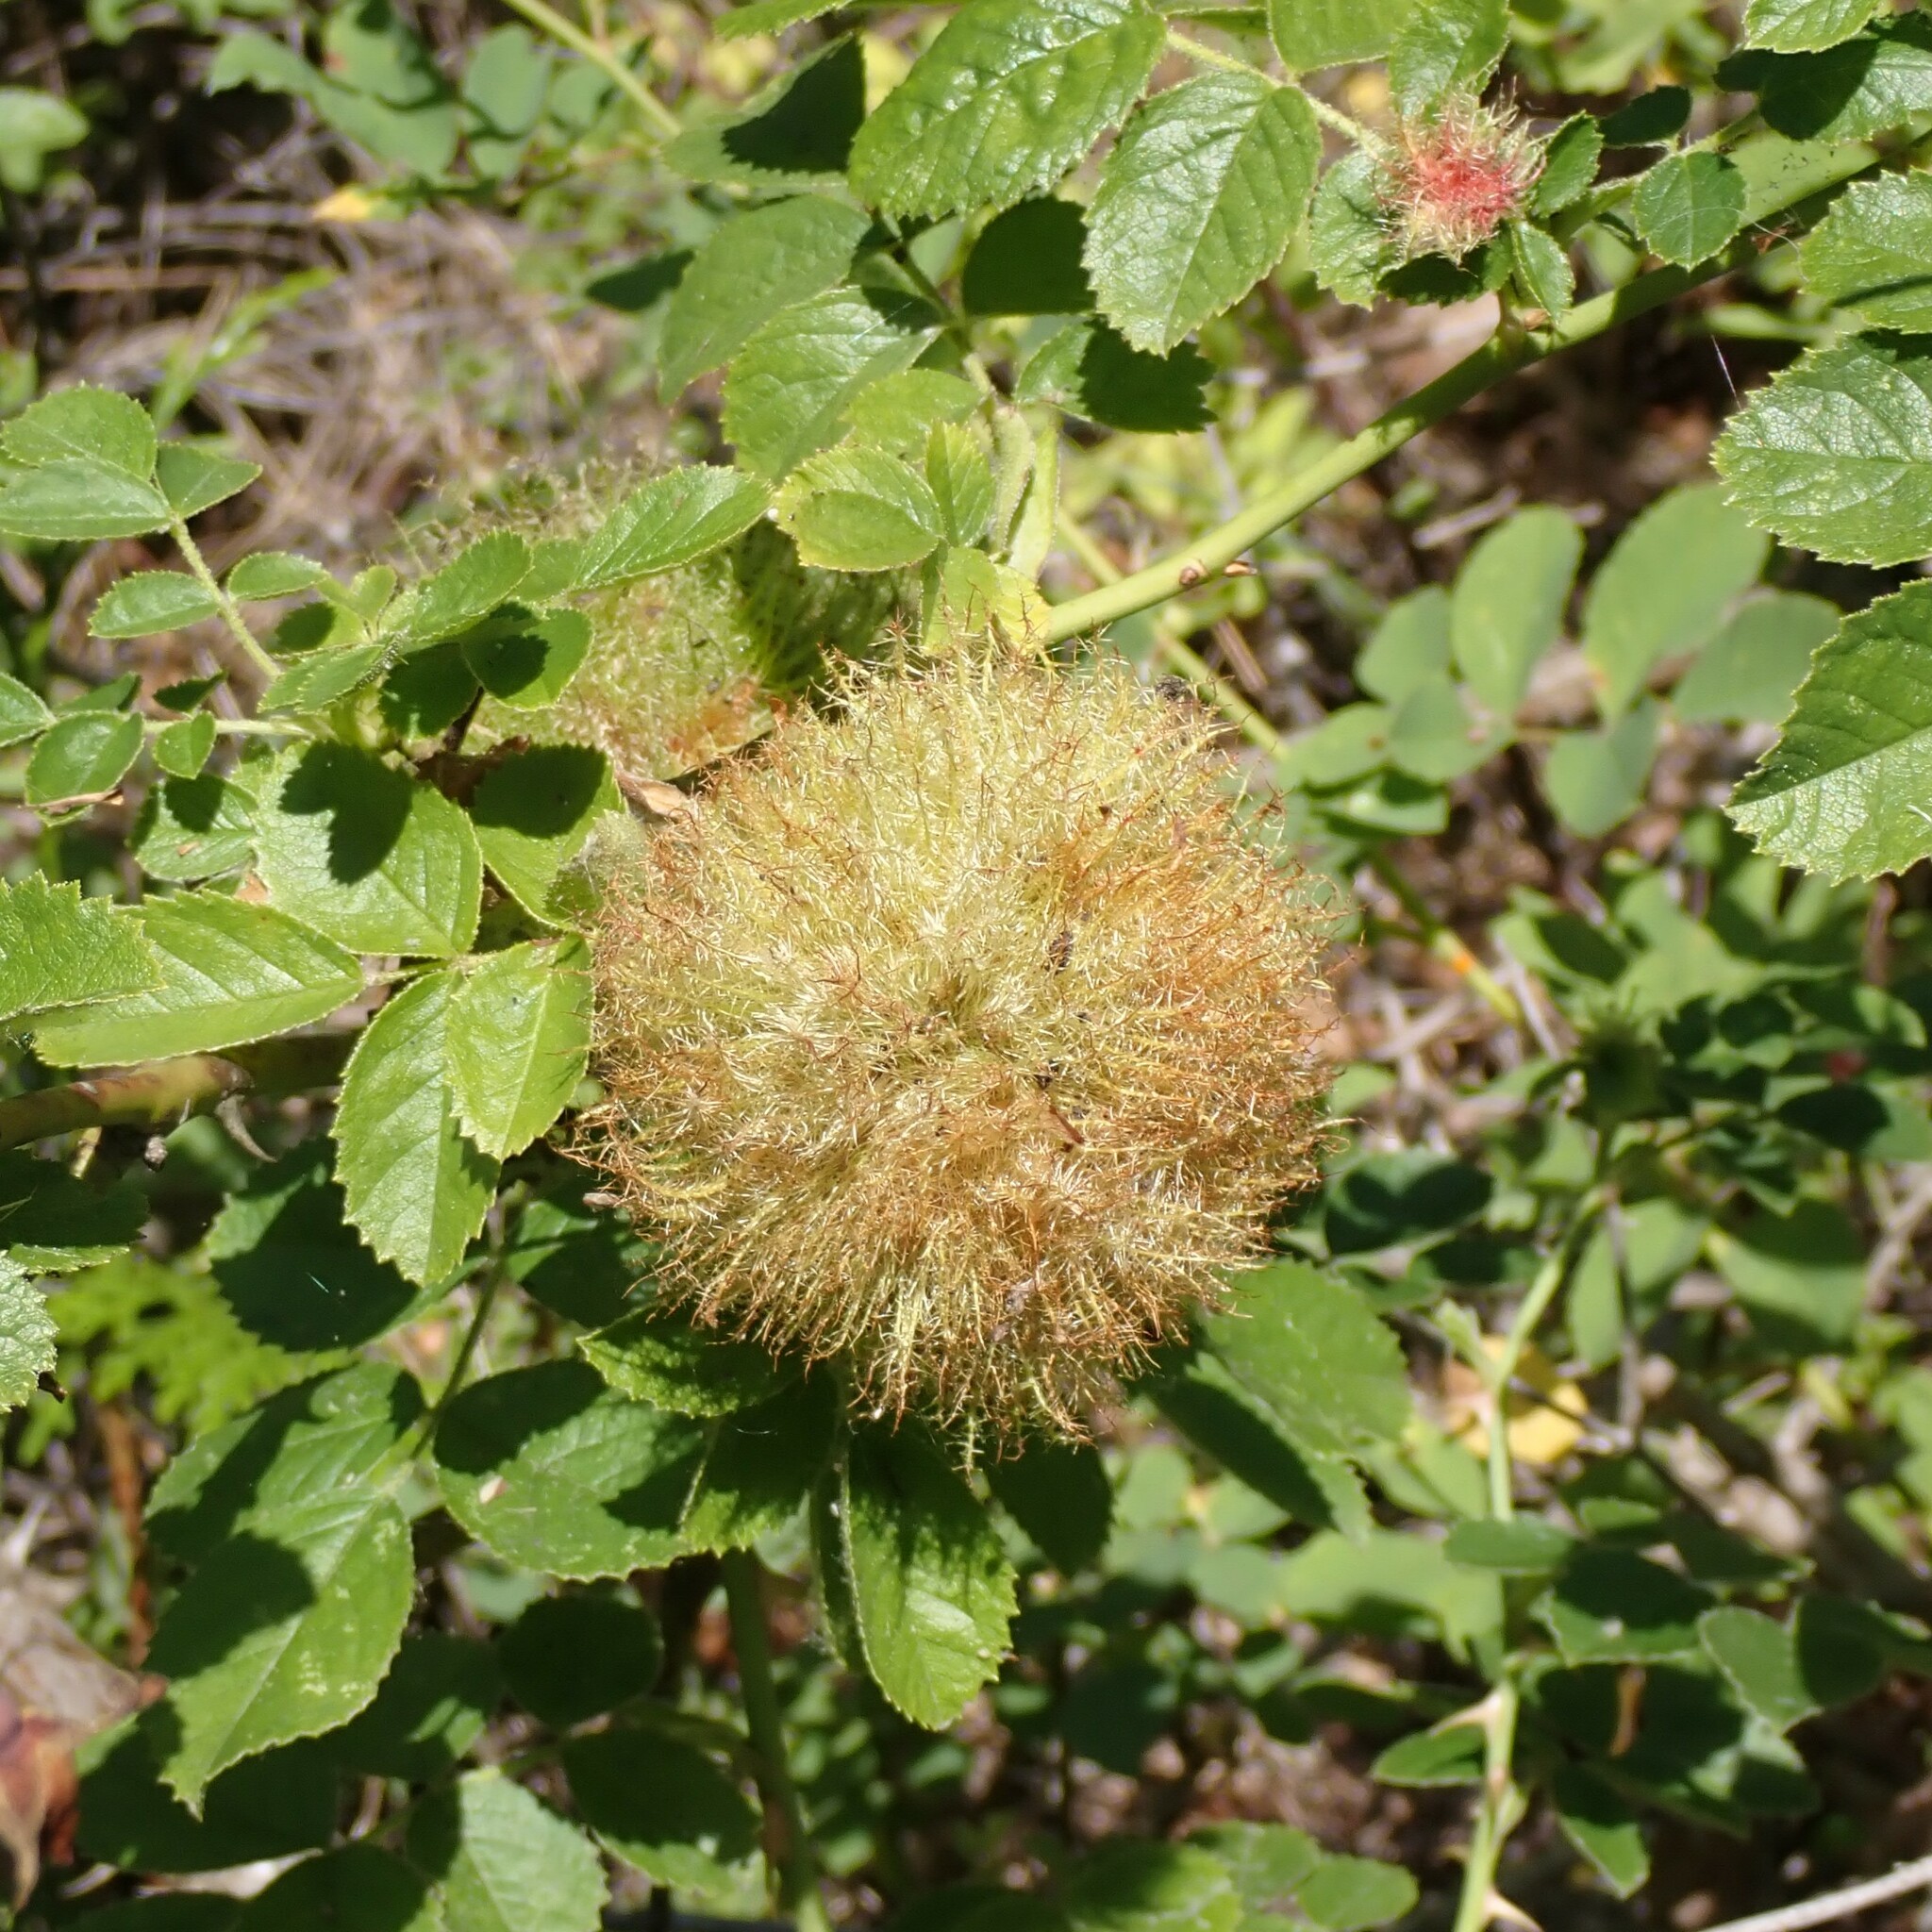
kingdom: Animalia
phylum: Arthropoda
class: Insecta
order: Hymenoptera
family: Cynipidae
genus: Diplolepis
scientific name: Diplolepis rosae
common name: Bedeguar gall
